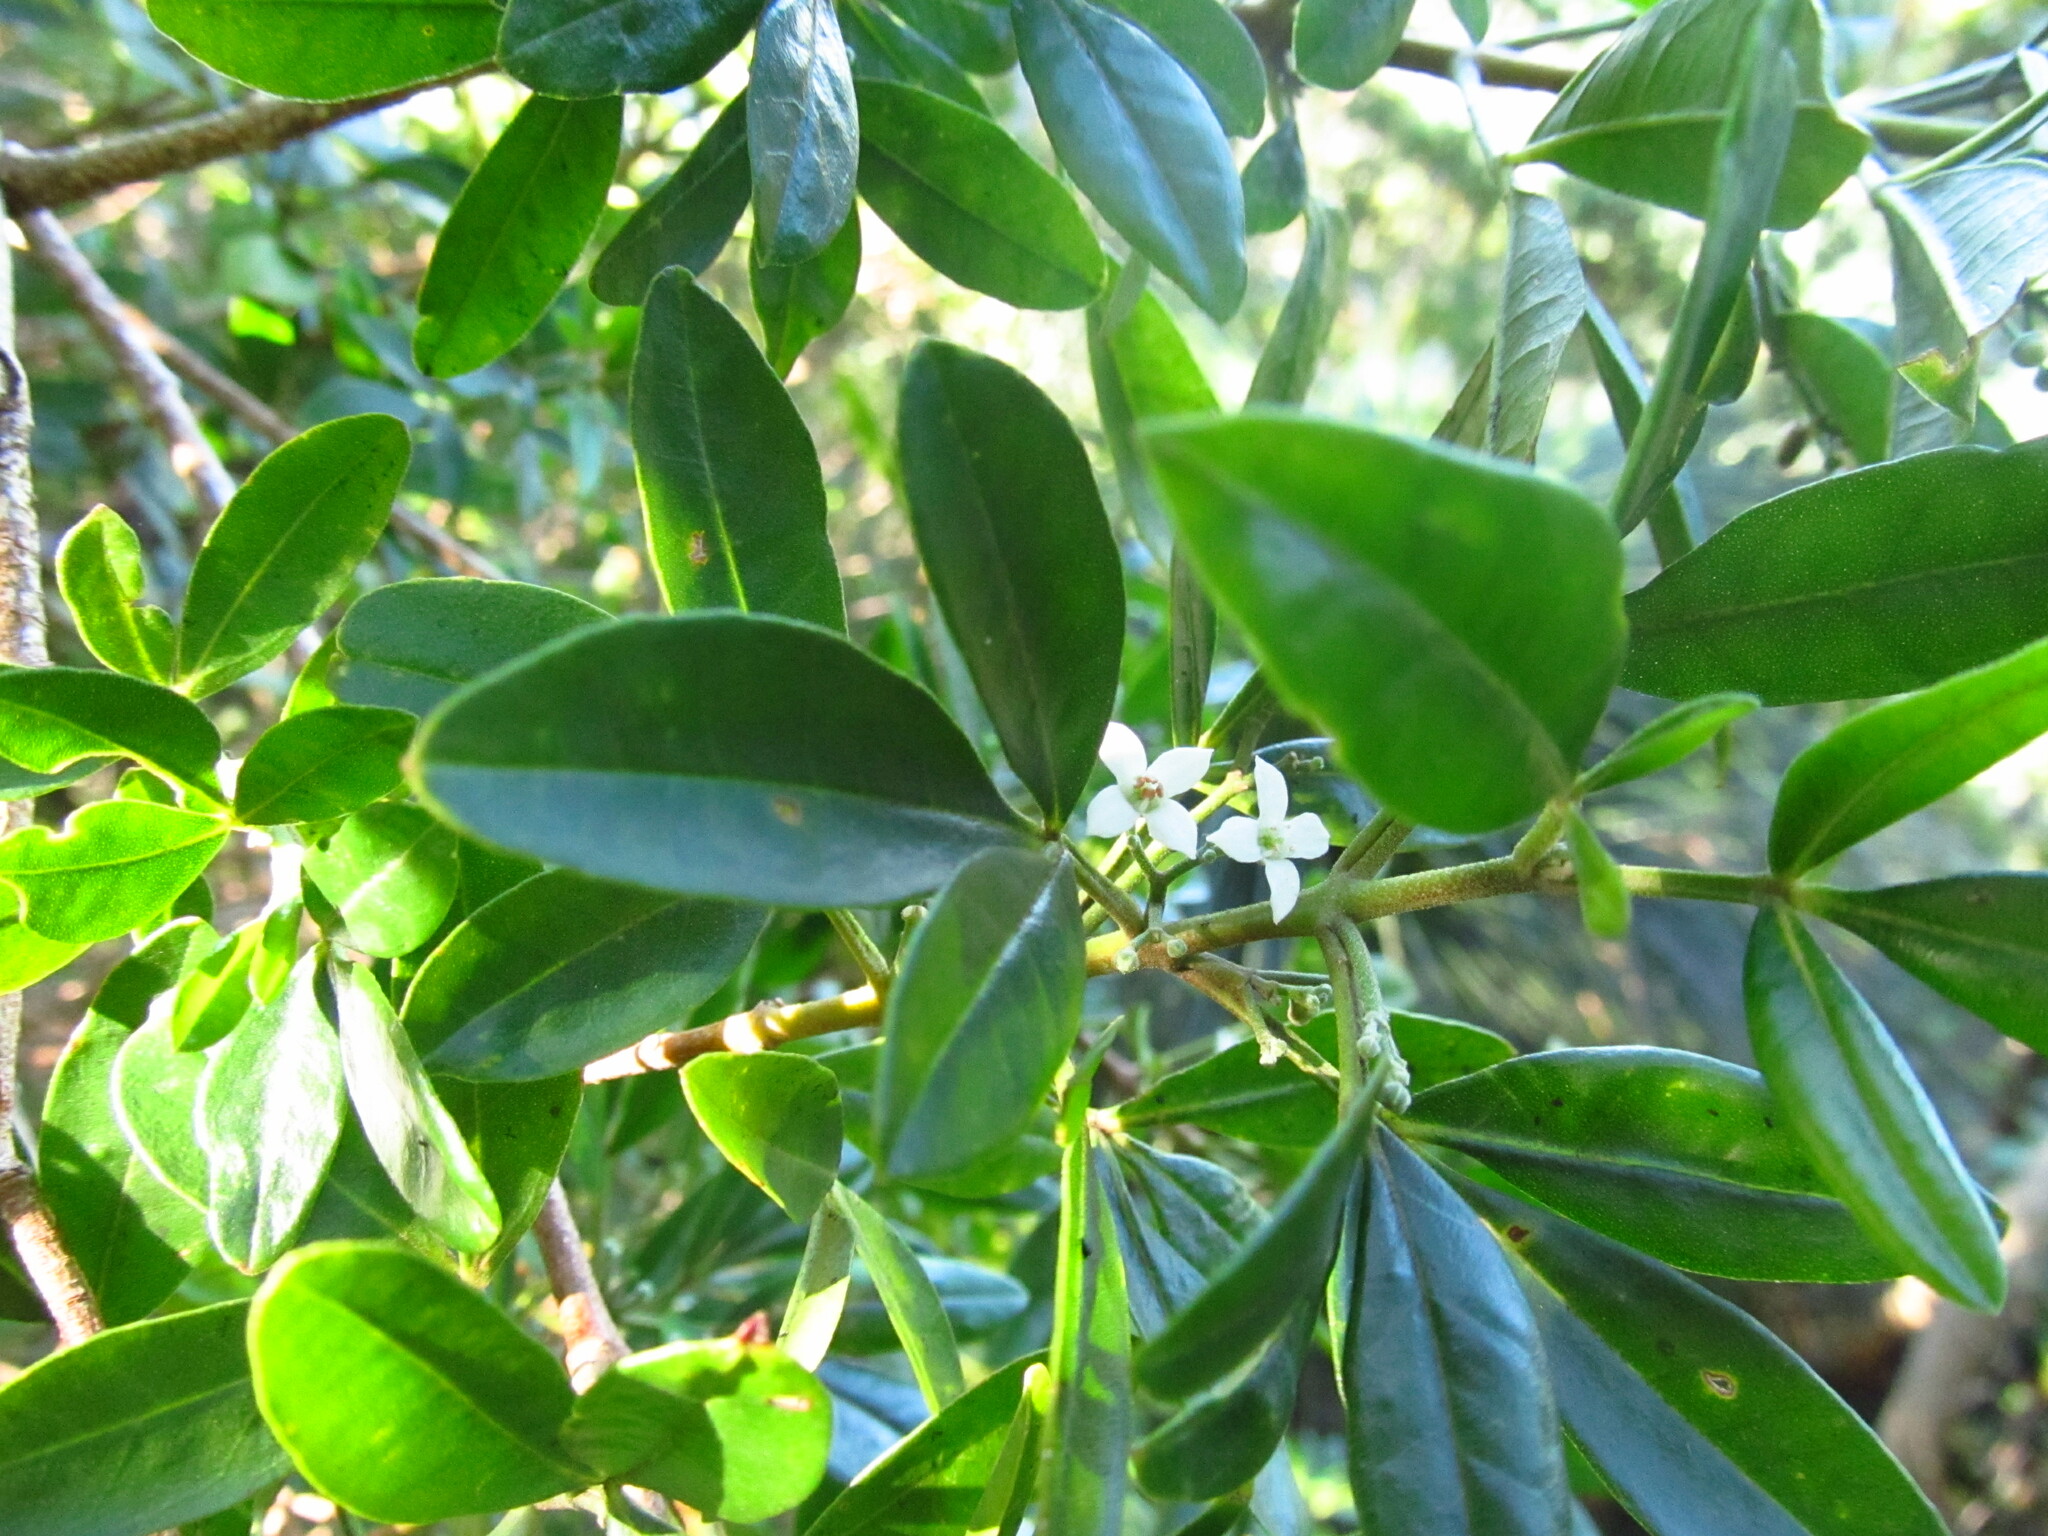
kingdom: Plantae
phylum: Tracheophyta
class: Magnoliopsida
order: Sapindales
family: Rutaceae
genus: Zieria
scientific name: Zieria southwellii
